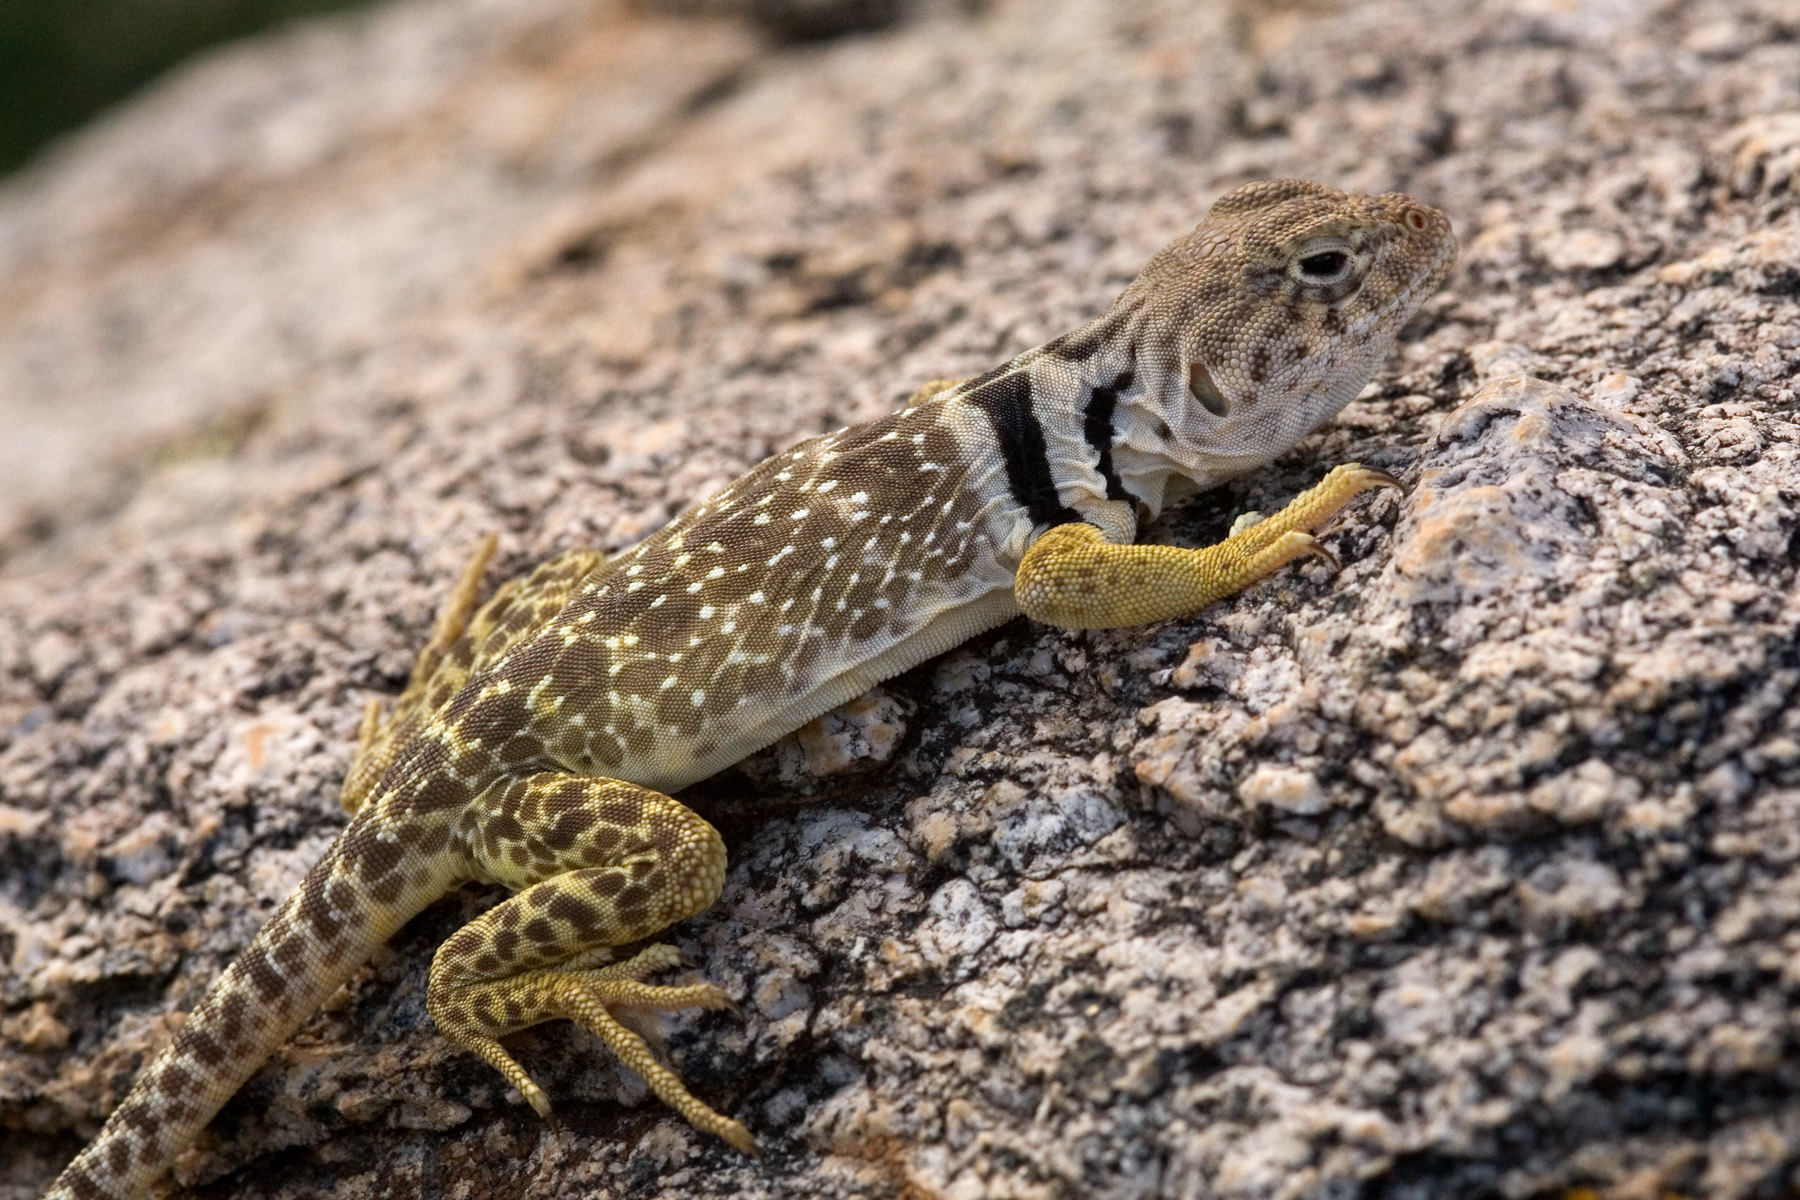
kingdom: Animalia
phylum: Chordata
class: Squamata
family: Crotaphytidae
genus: Crotaphytus
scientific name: Crotaphytus collaris
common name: Collared lizard
